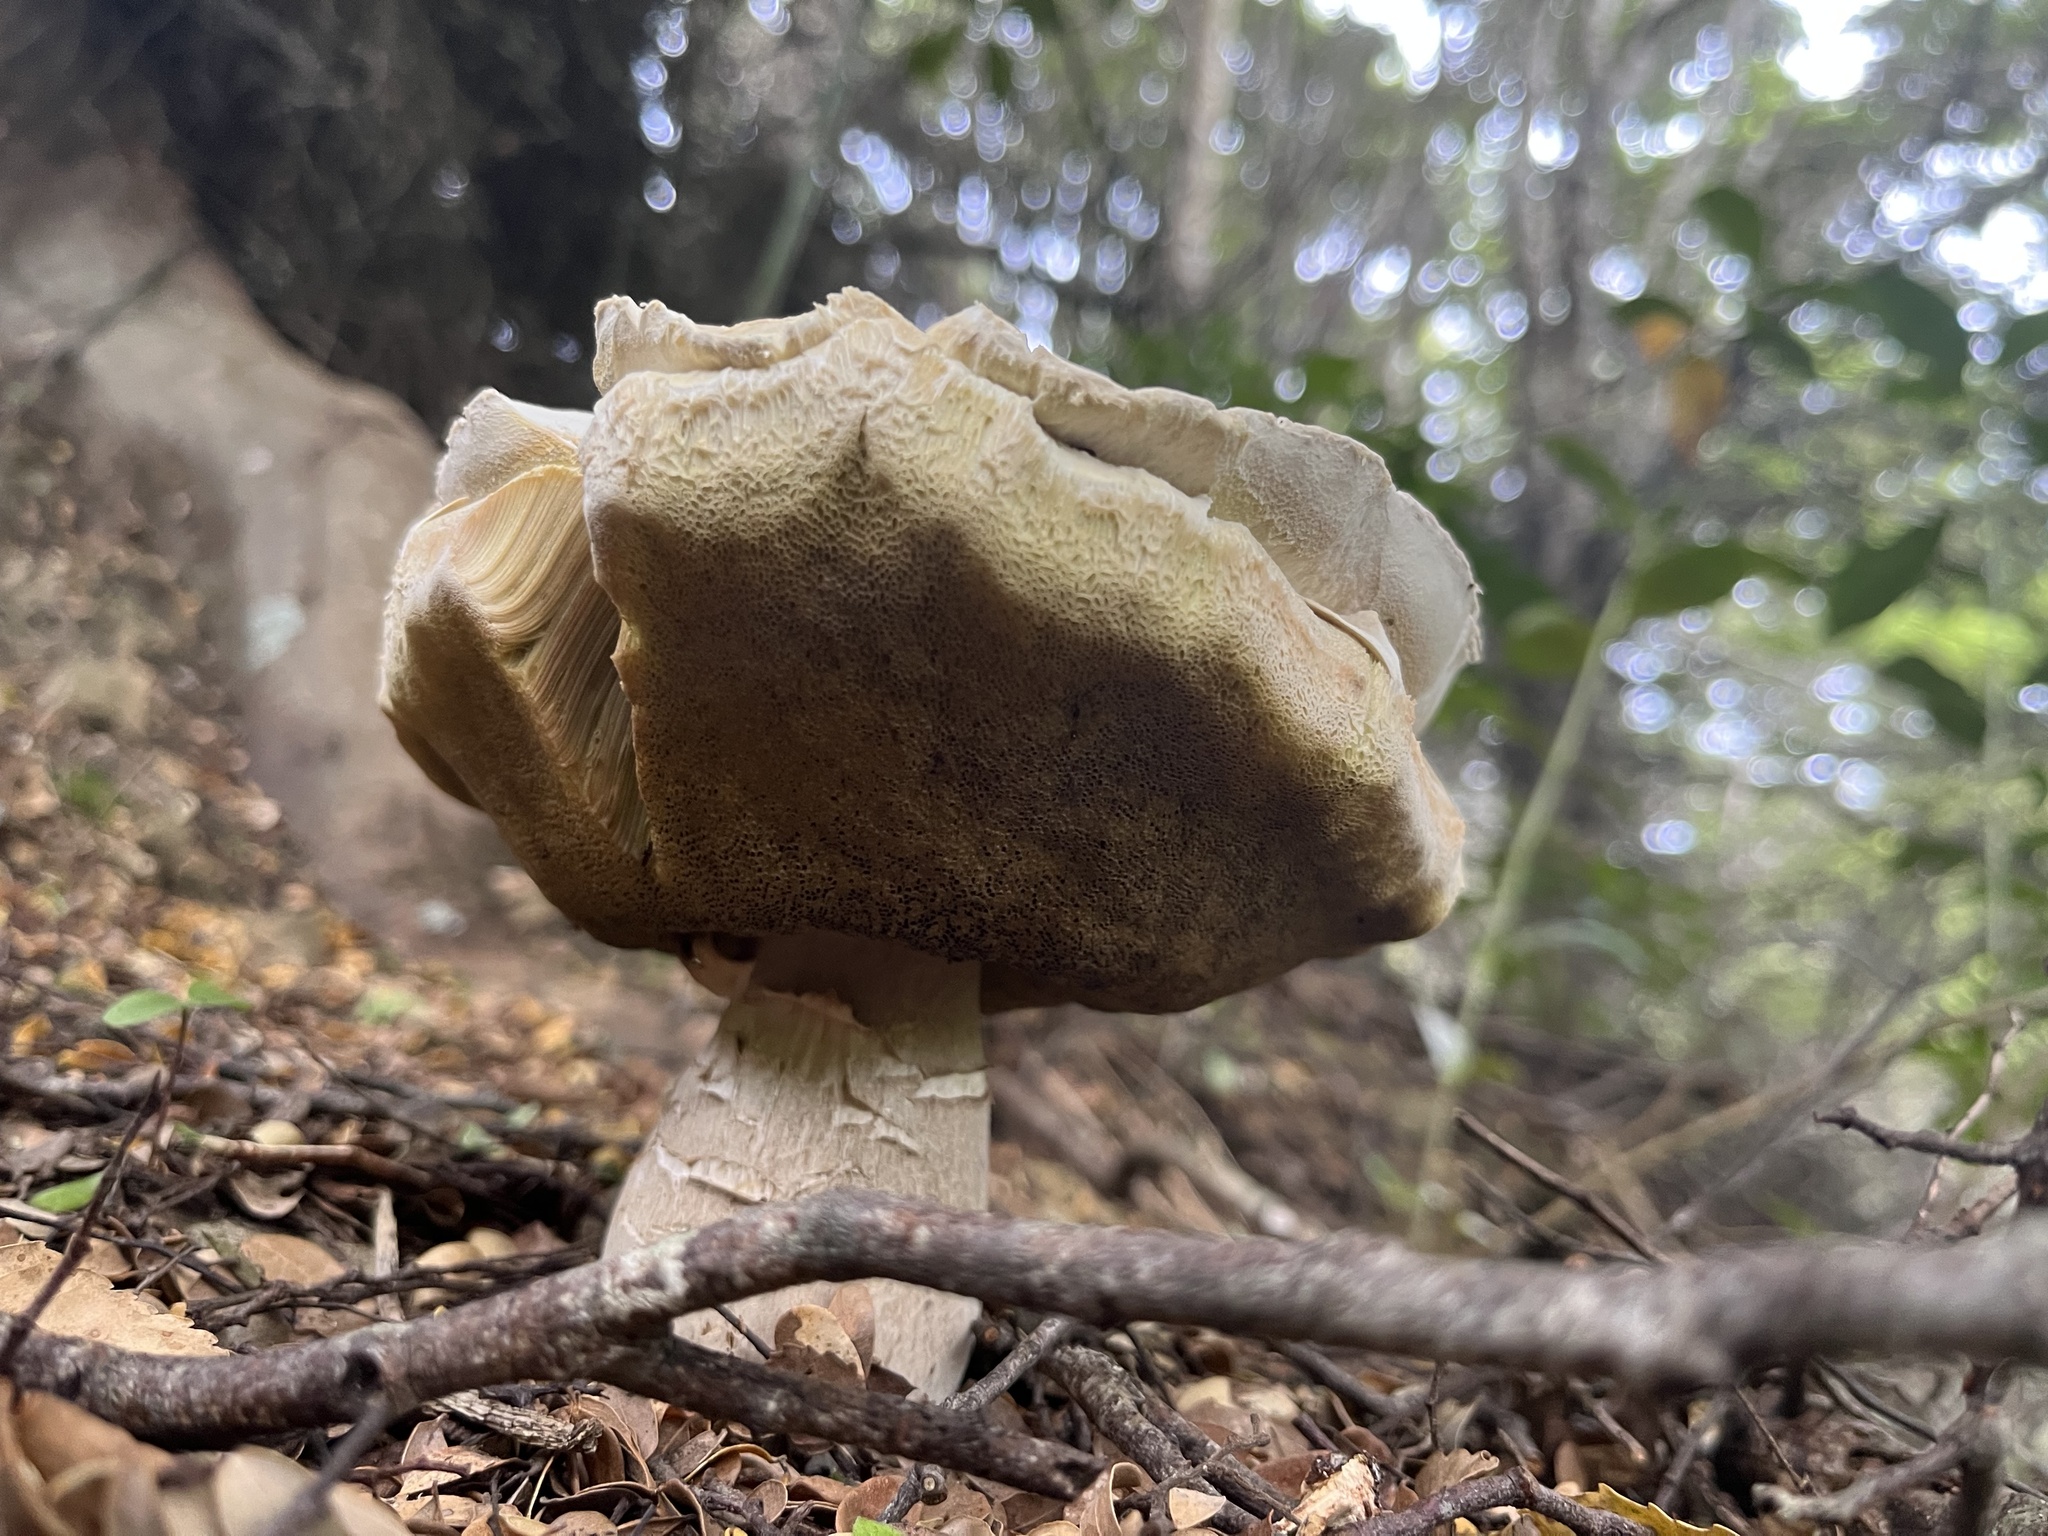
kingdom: Fungi
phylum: Basidiomycota
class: Agaricomycetes
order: Boletales
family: Boletaceae
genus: Boletus
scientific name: Boletus edulis
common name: Cep
